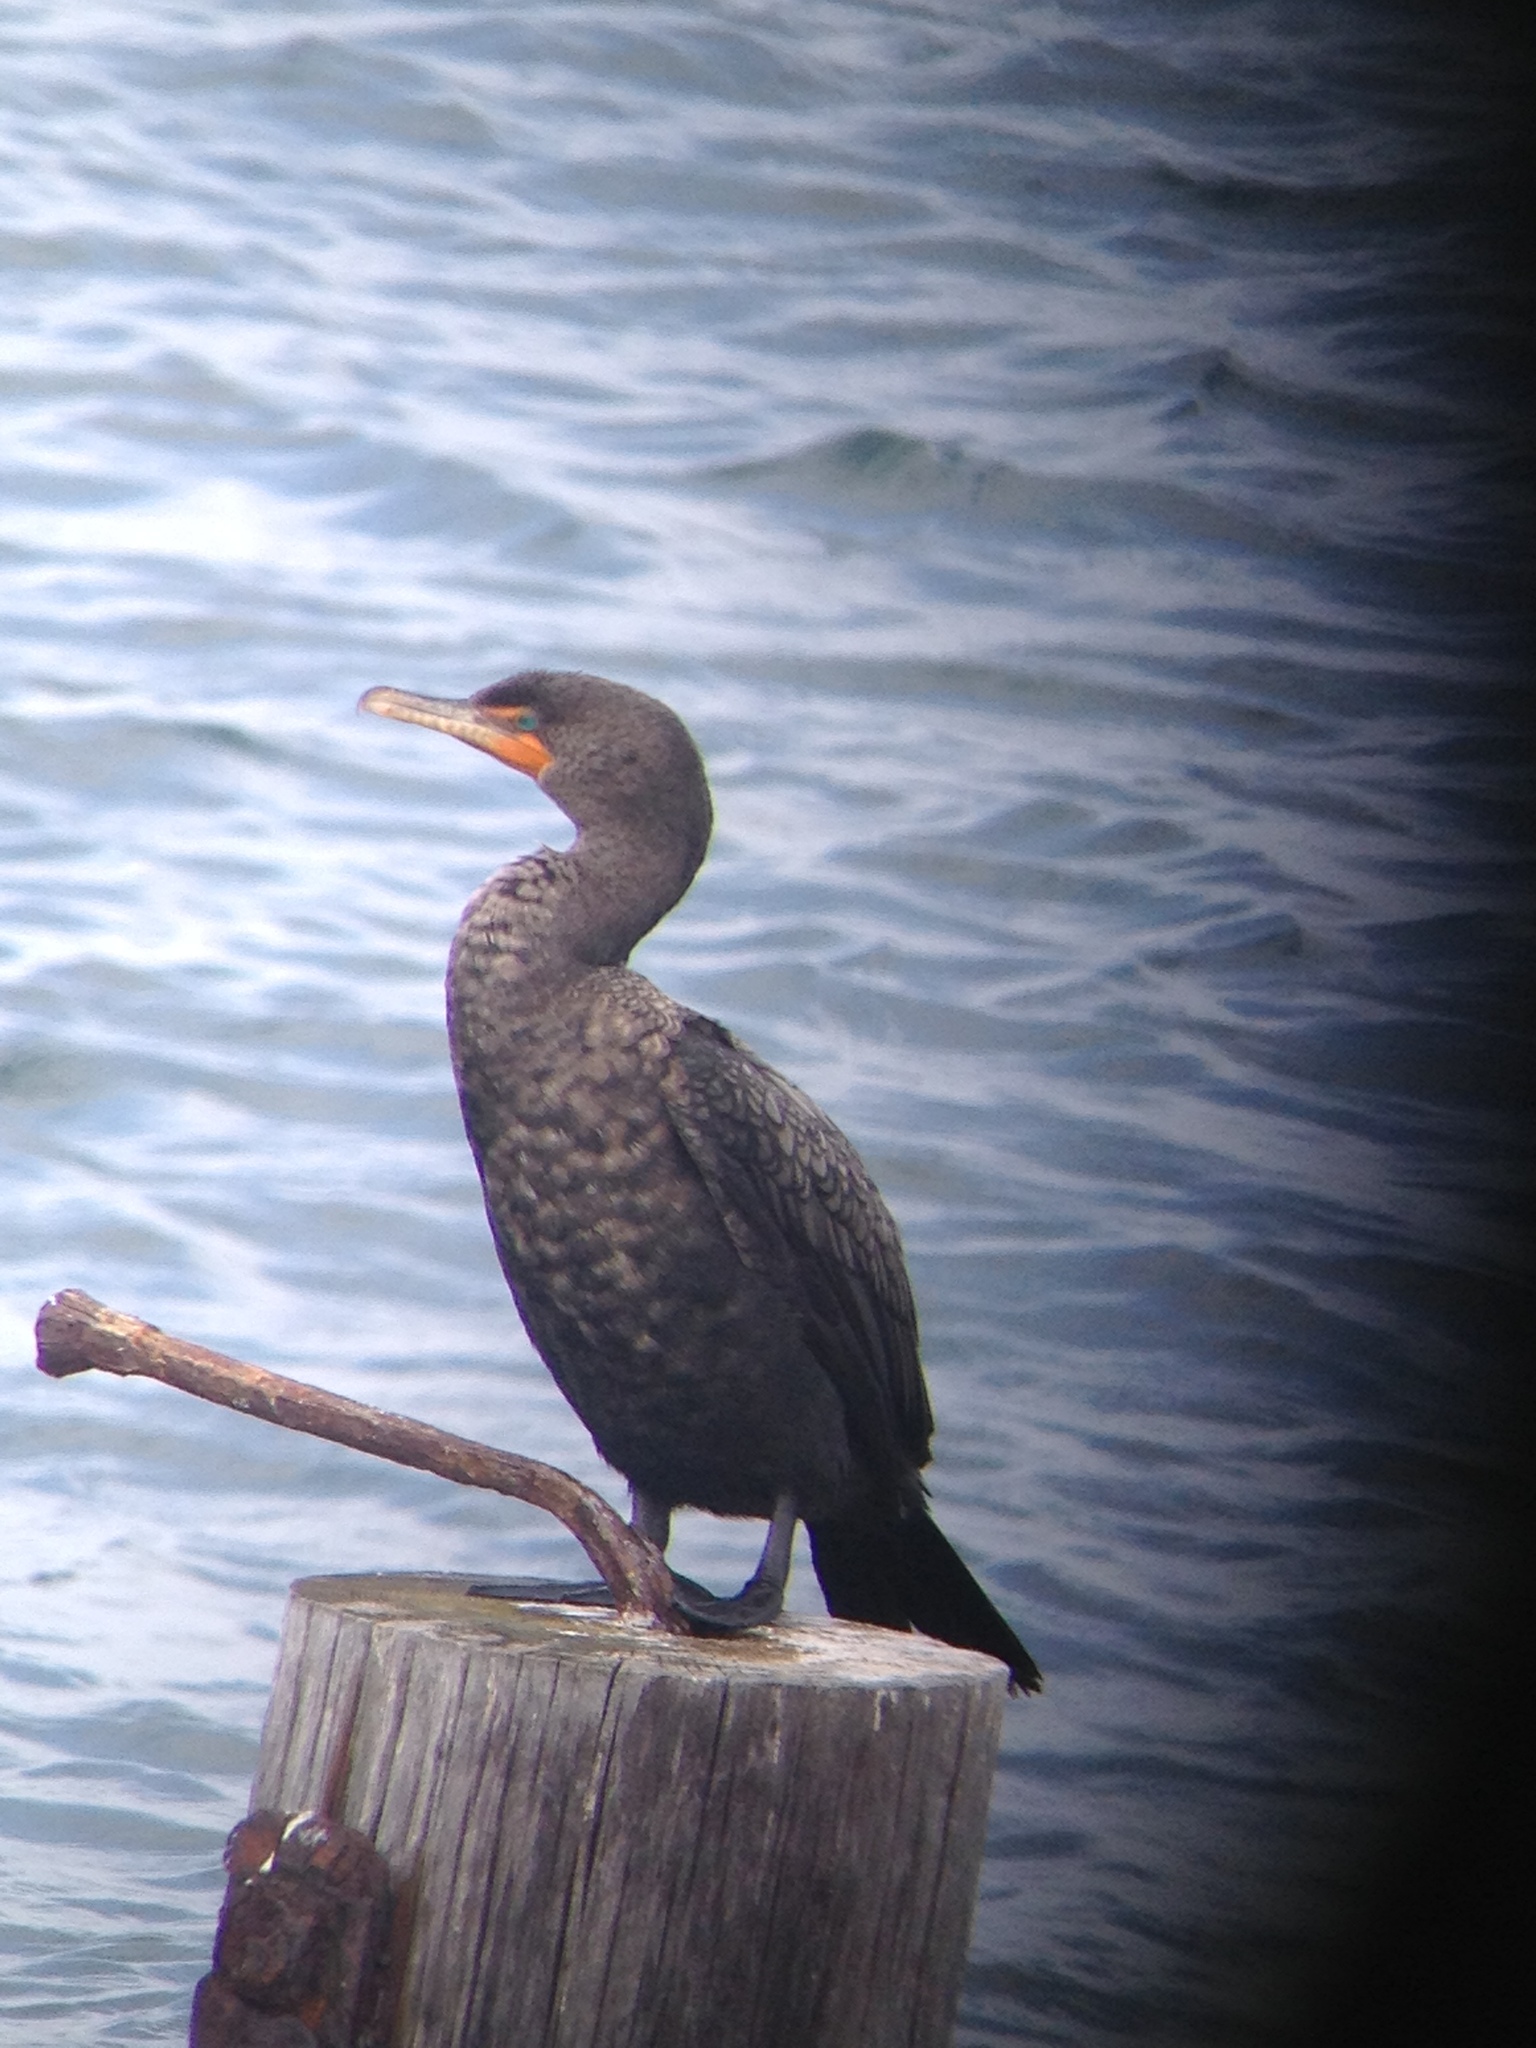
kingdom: Animalia
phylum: Chordata
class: Aves
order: Suliformes
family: Phalacrocoracidae
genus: Phalacrocorax
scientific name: Phalacrocorax auritus
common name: Double-crested cormorant
